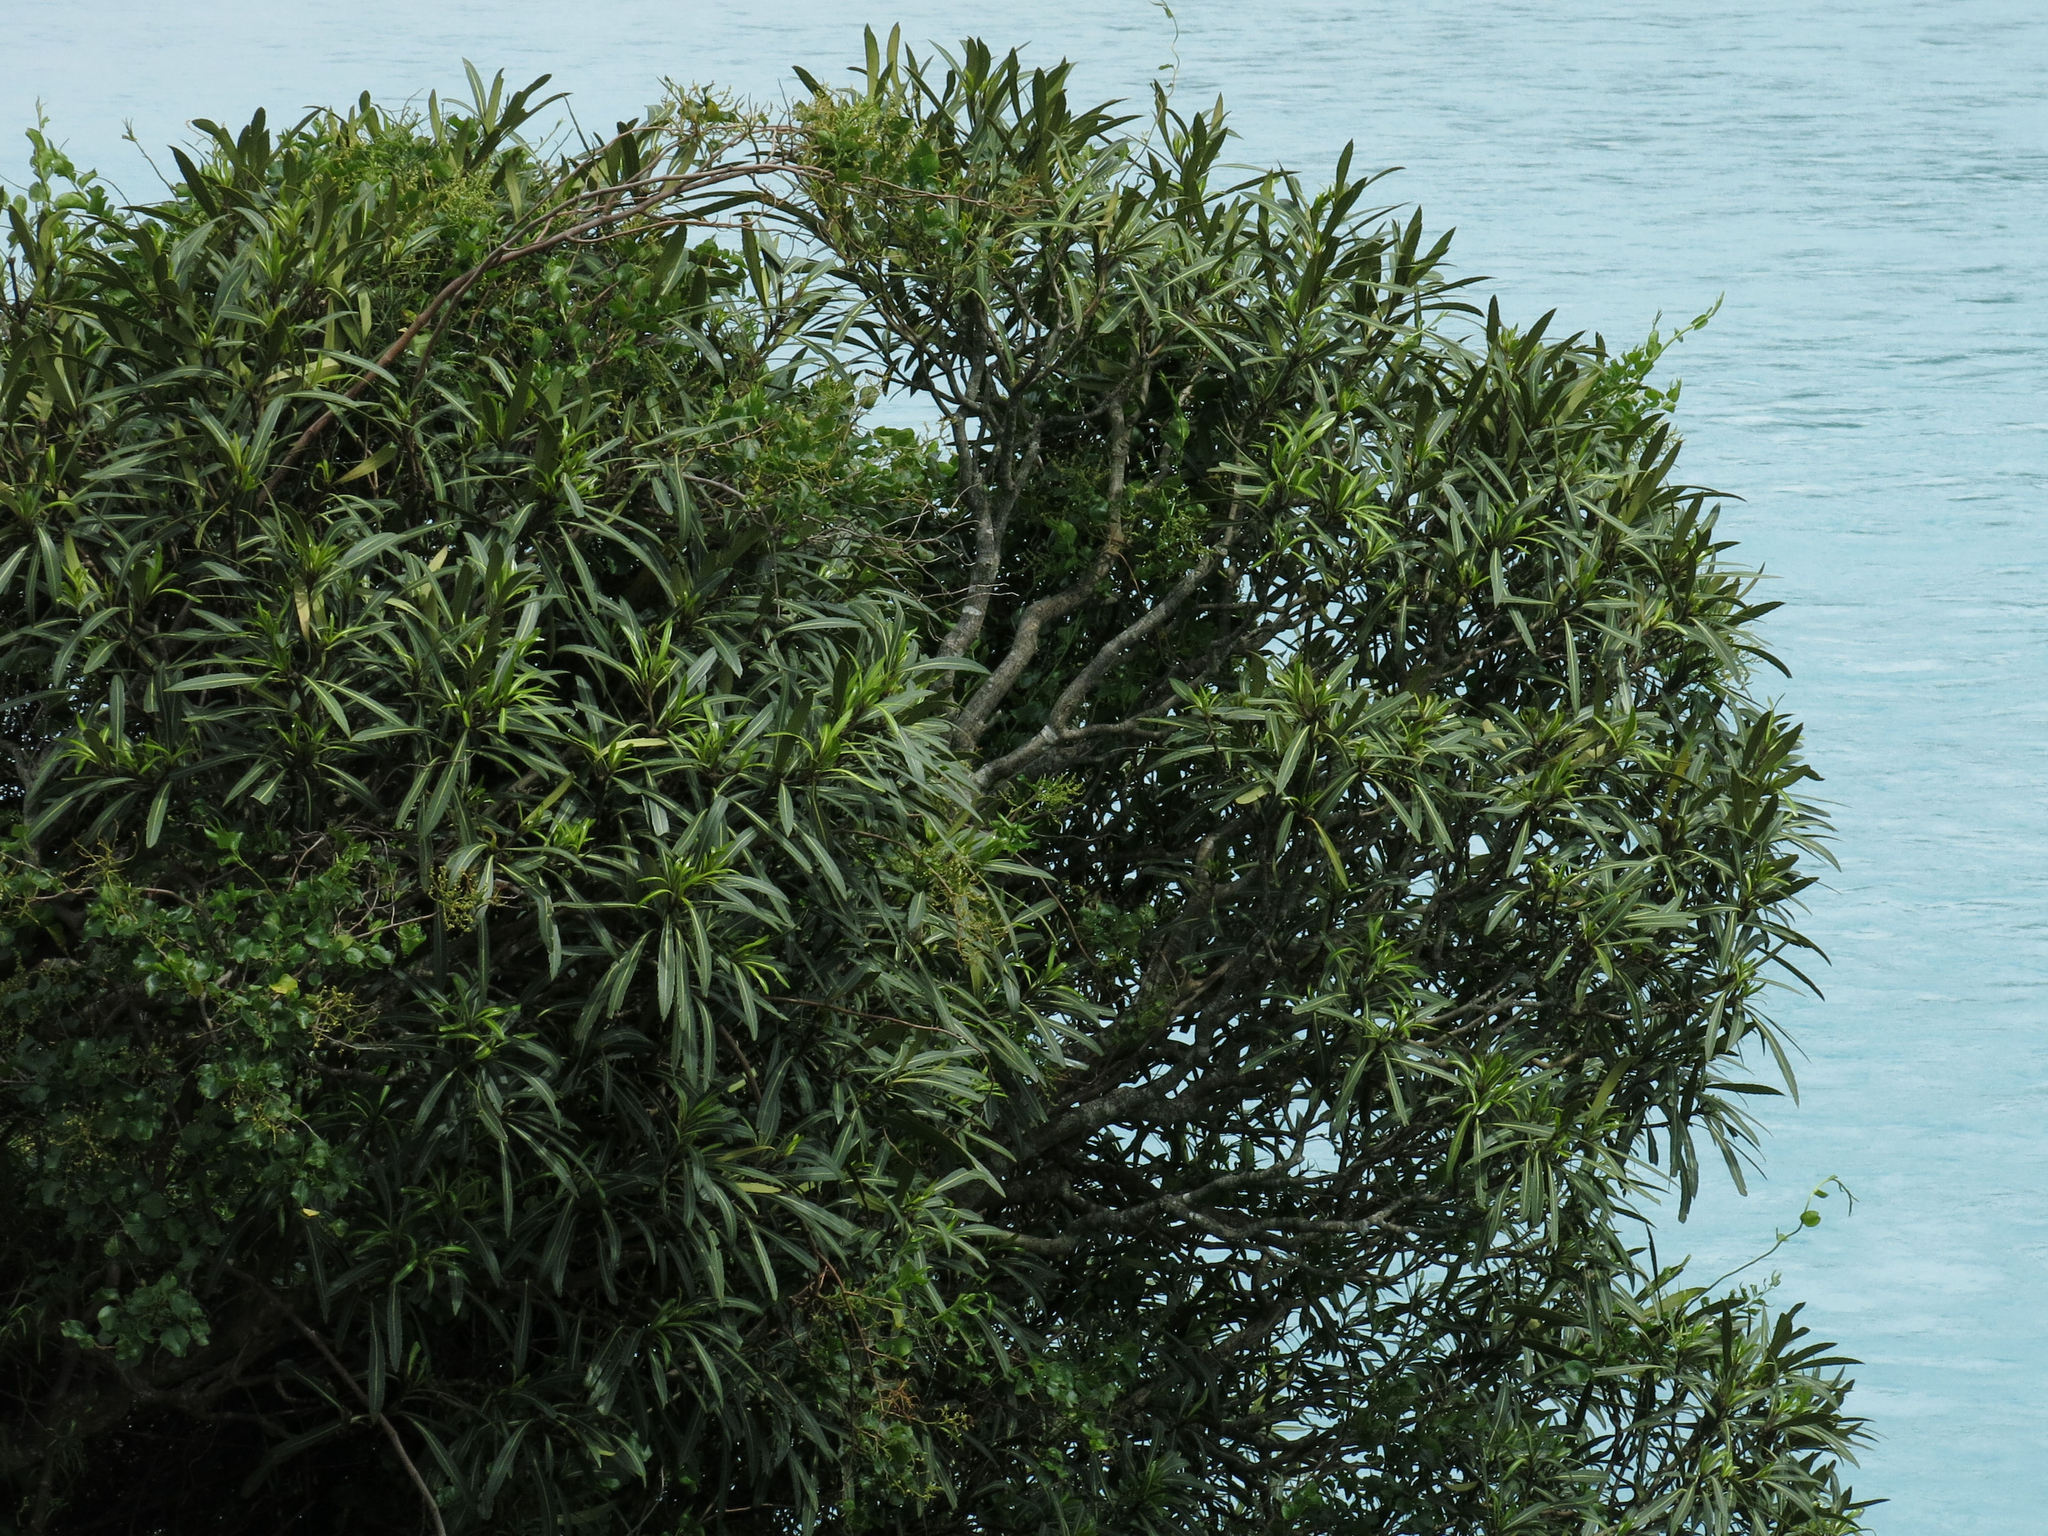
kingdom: Plantae
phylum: Tracheophyta
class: Magnoliopsida
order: Apiales
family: Araliaceae
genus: Pseudopanax
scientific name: Pseudopanax crassifolius
